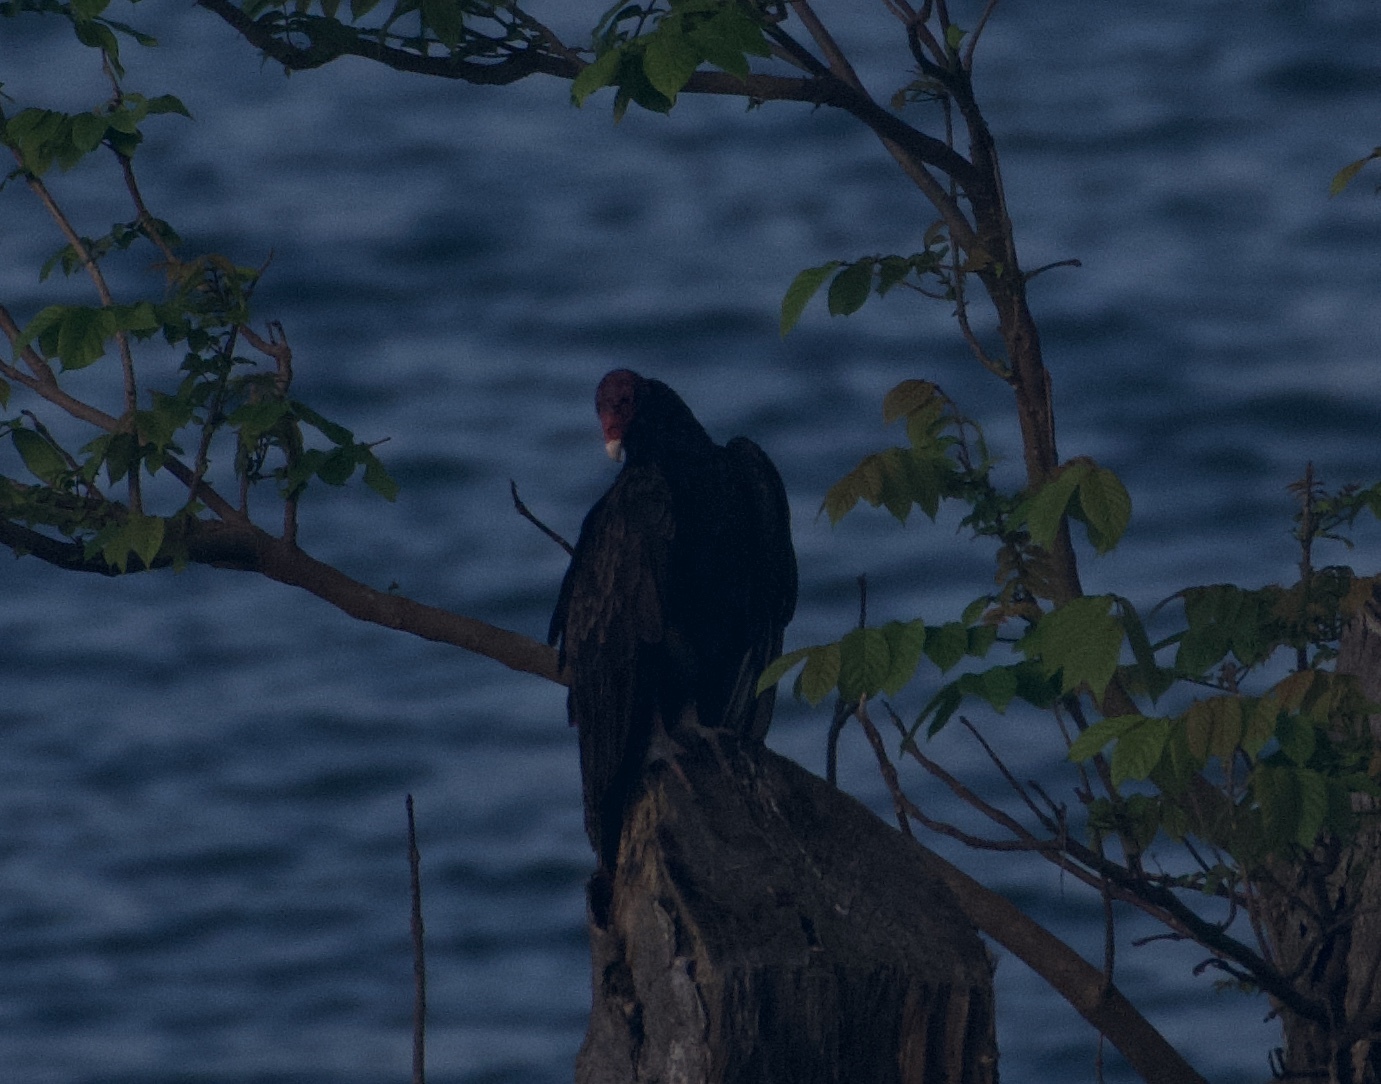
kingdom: Animalia
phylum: Chordata
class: Aves
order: Accipitriformes
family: Cathartidae
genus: Cathartes
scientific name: Cathartes aura
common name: Turkey vulture
